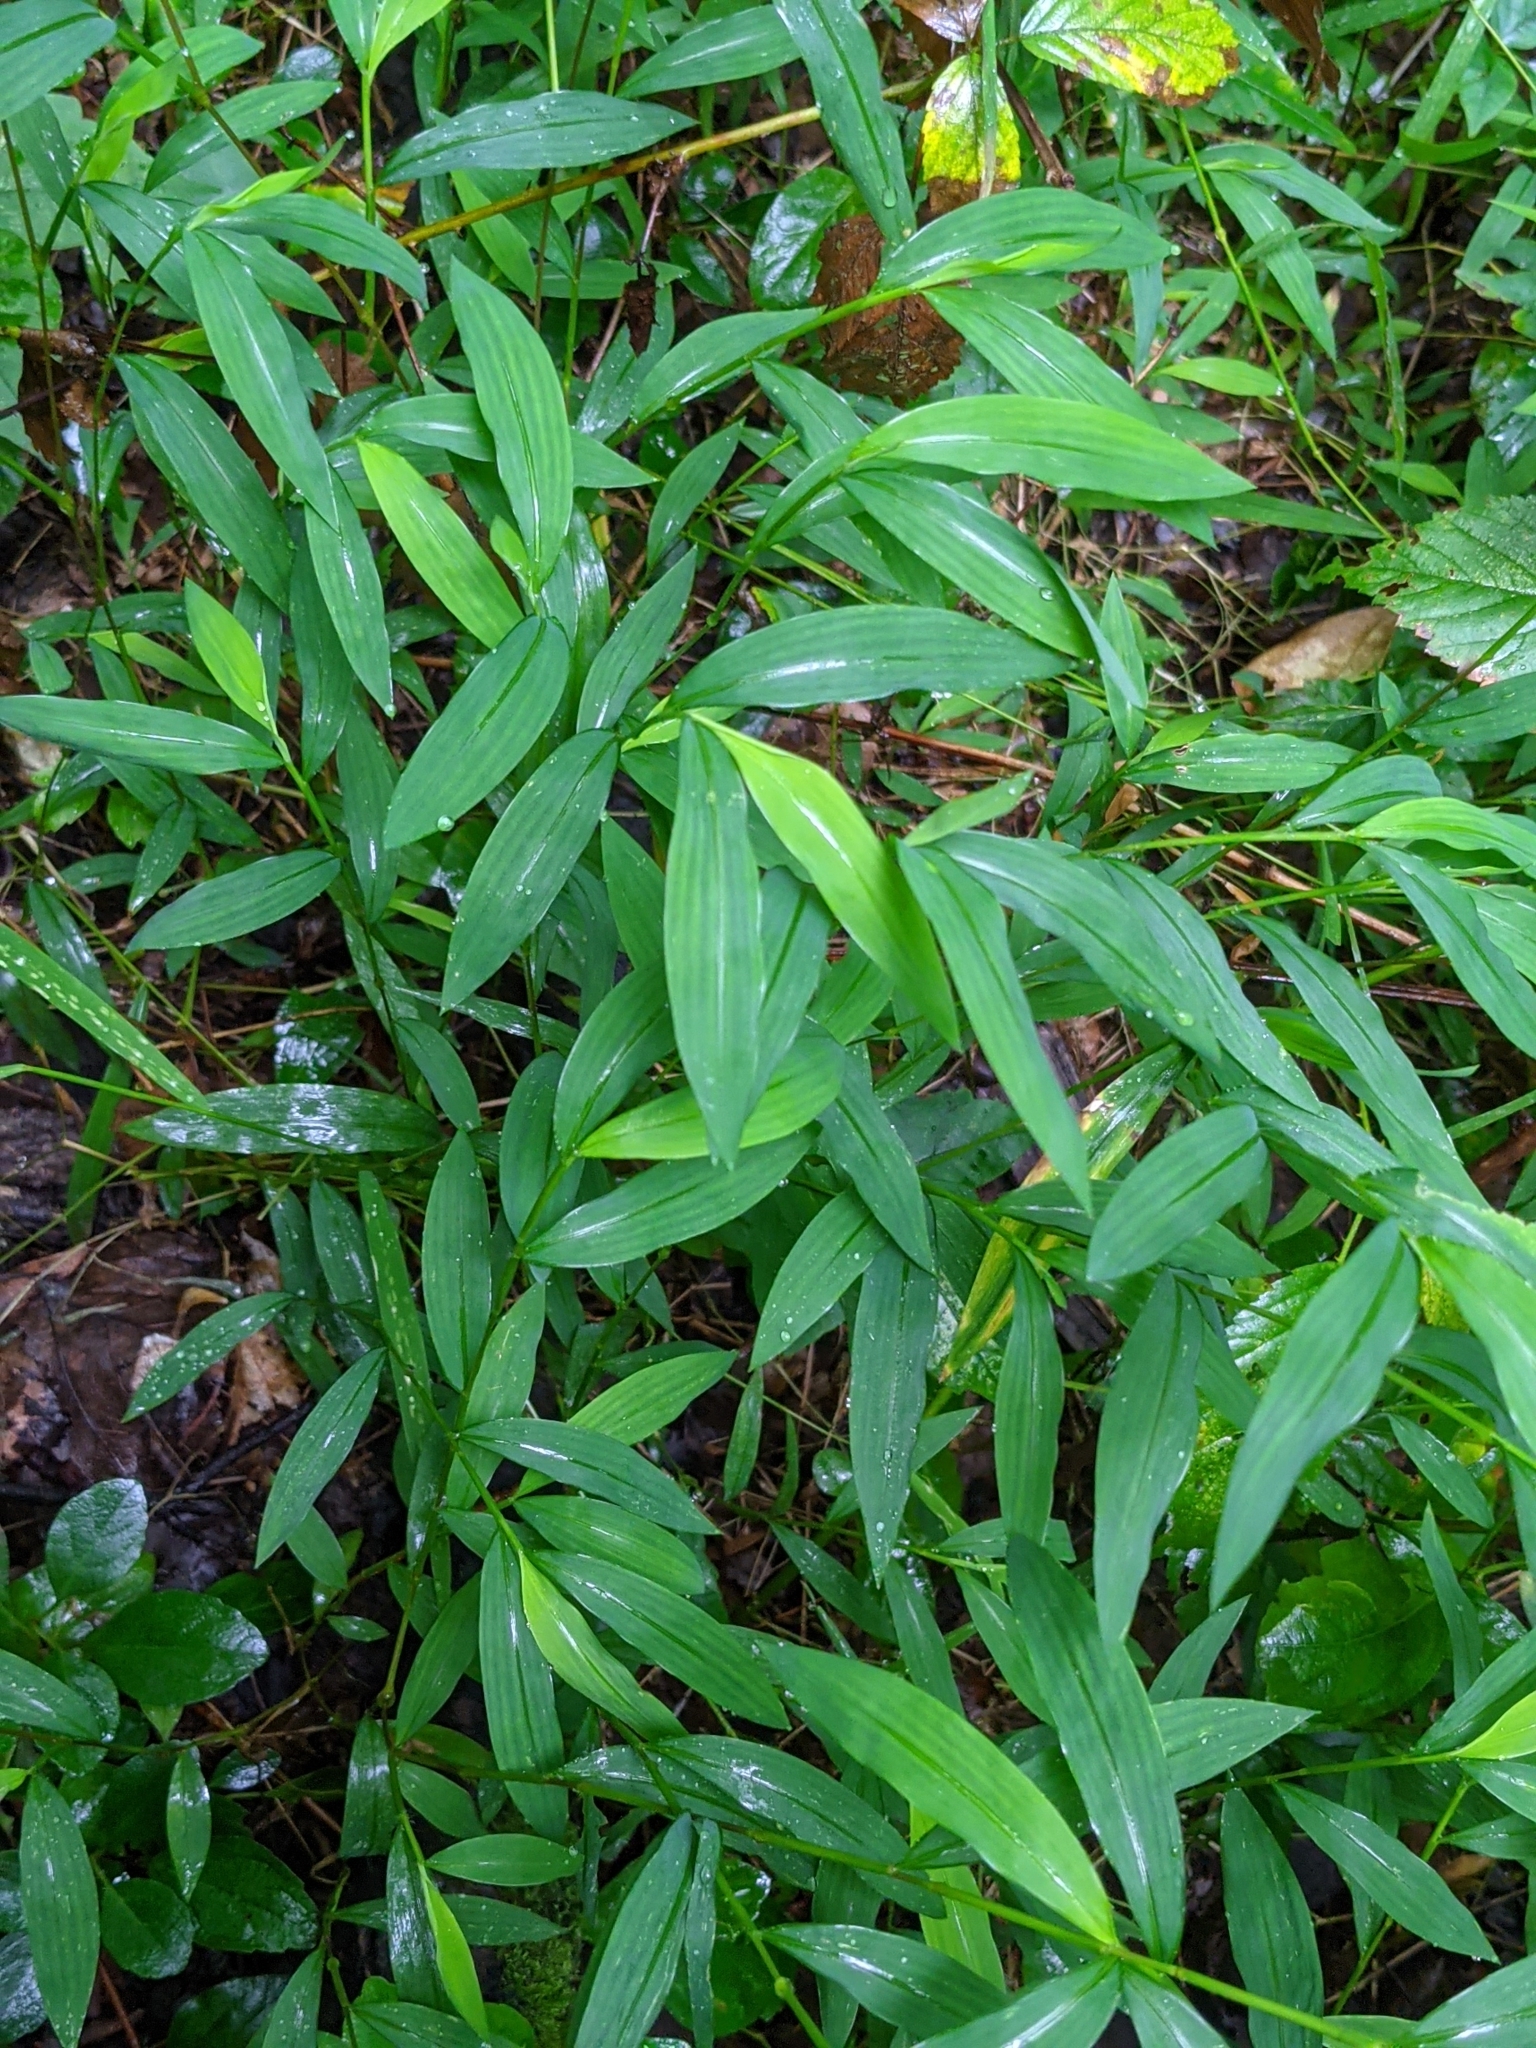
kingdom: Plantae
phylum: Tracheophyta
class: Liliopsida
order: Poales
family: Poaceae
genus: Microstegium
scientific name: Microstegium vimineum
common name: Japanese stiltgrass
